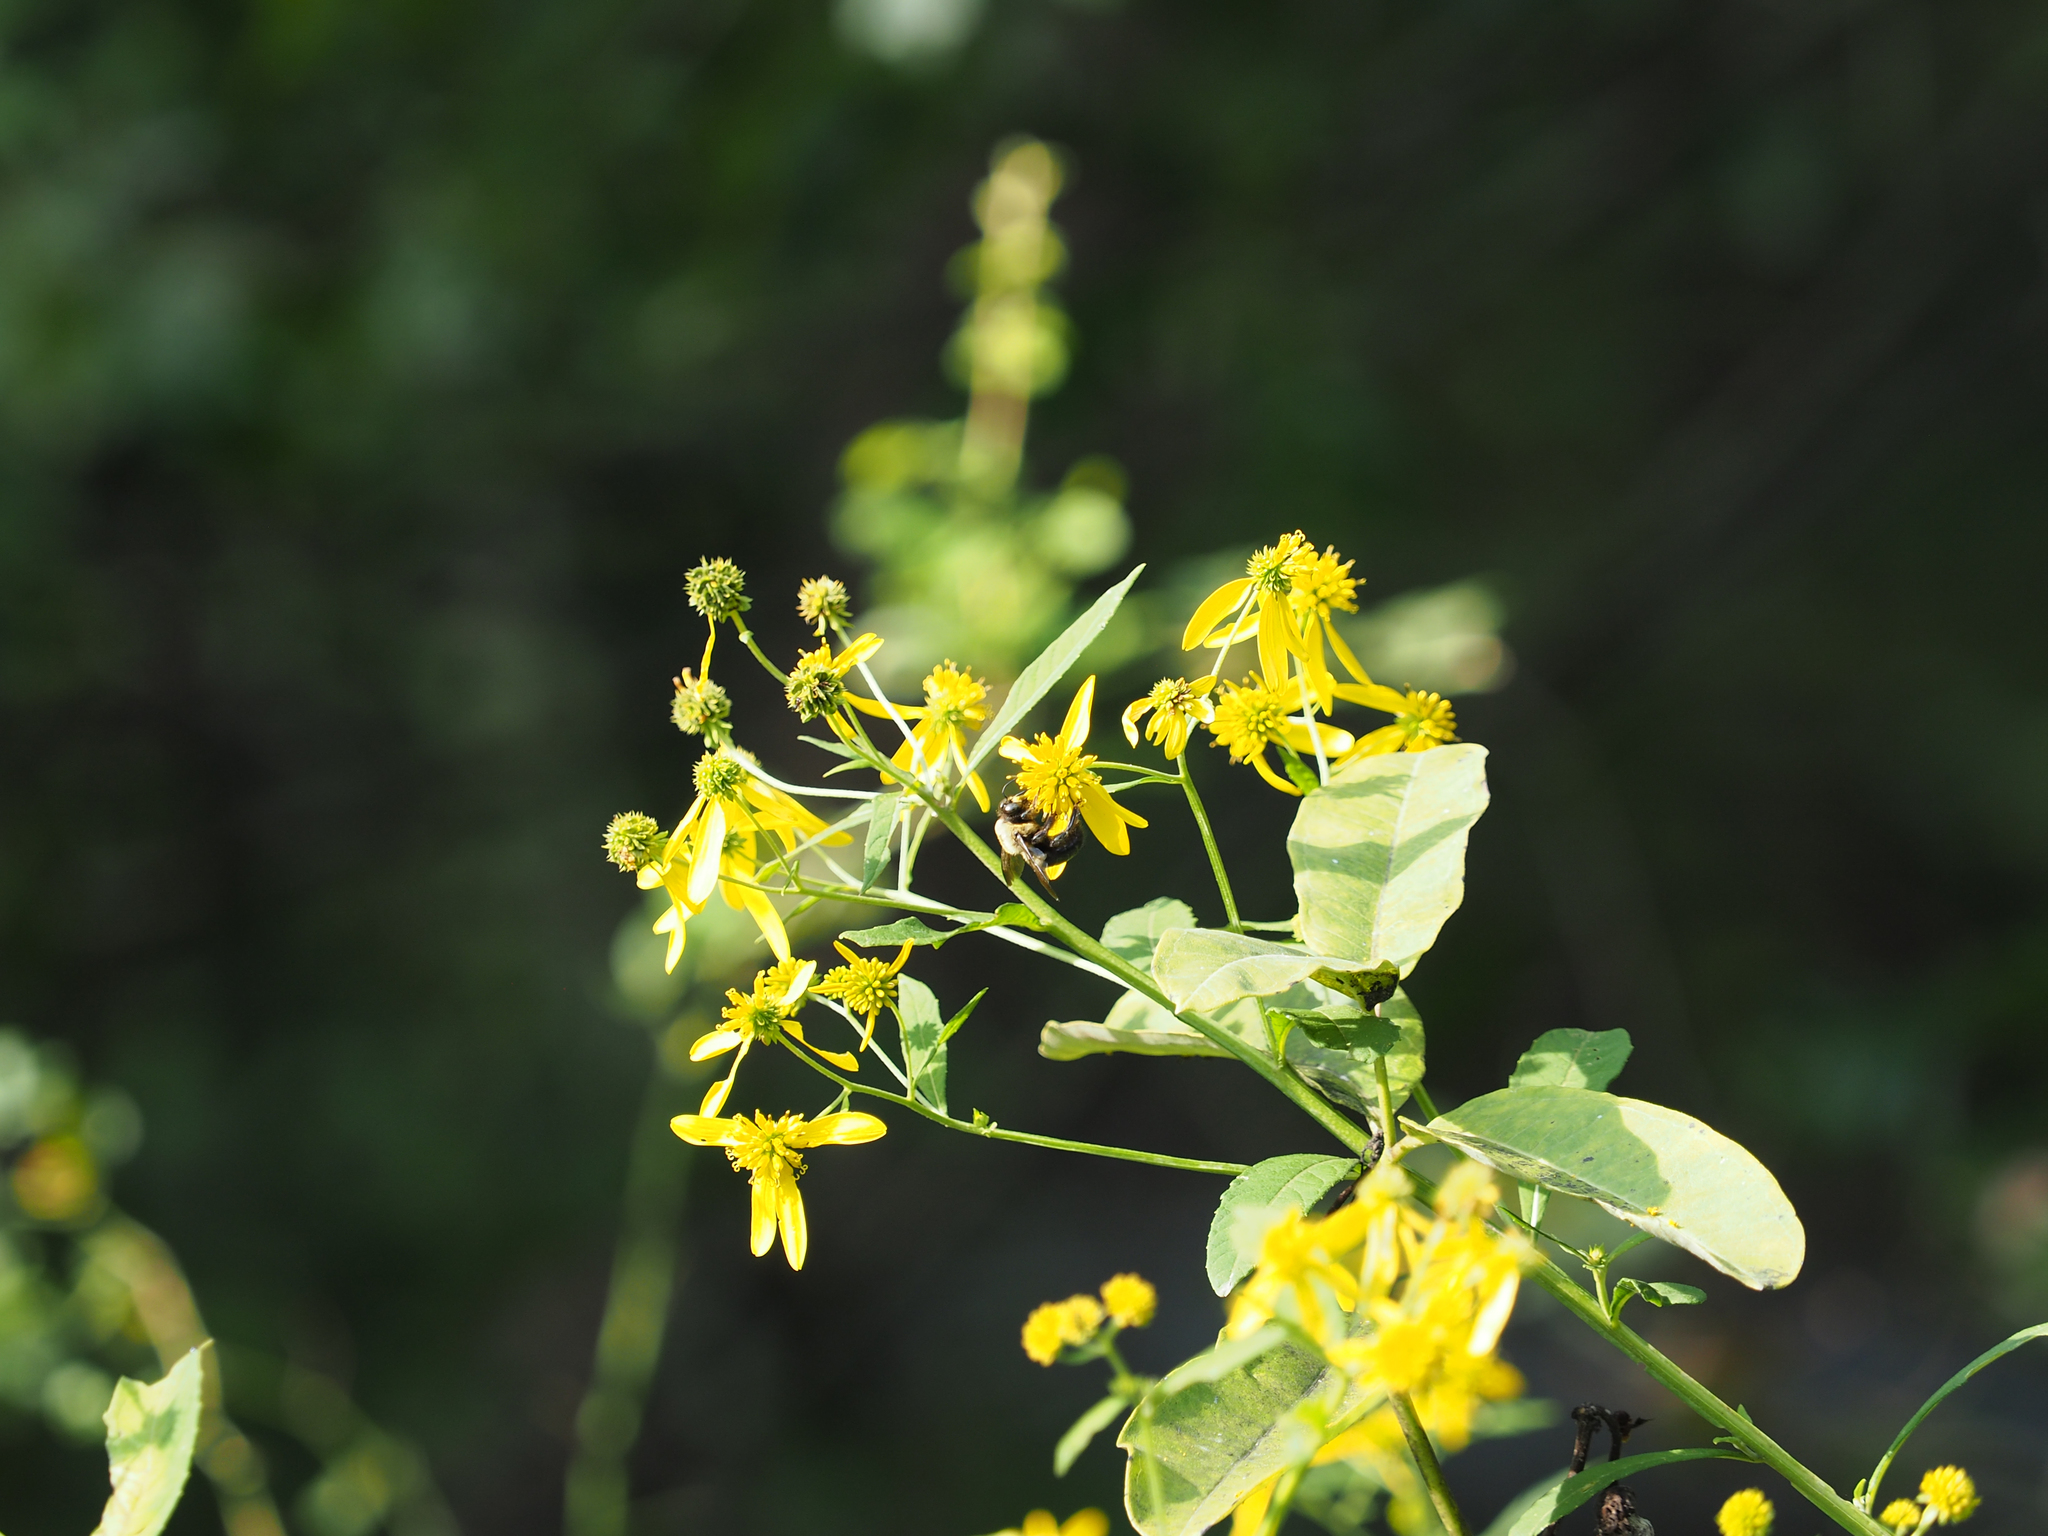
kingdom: Plantae
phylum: Tracheophyta
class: Magnoliopsida
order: Asterales
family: Asteraceae
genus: Verbesina
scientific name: Verbesina alternifolia
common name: Wingstem
